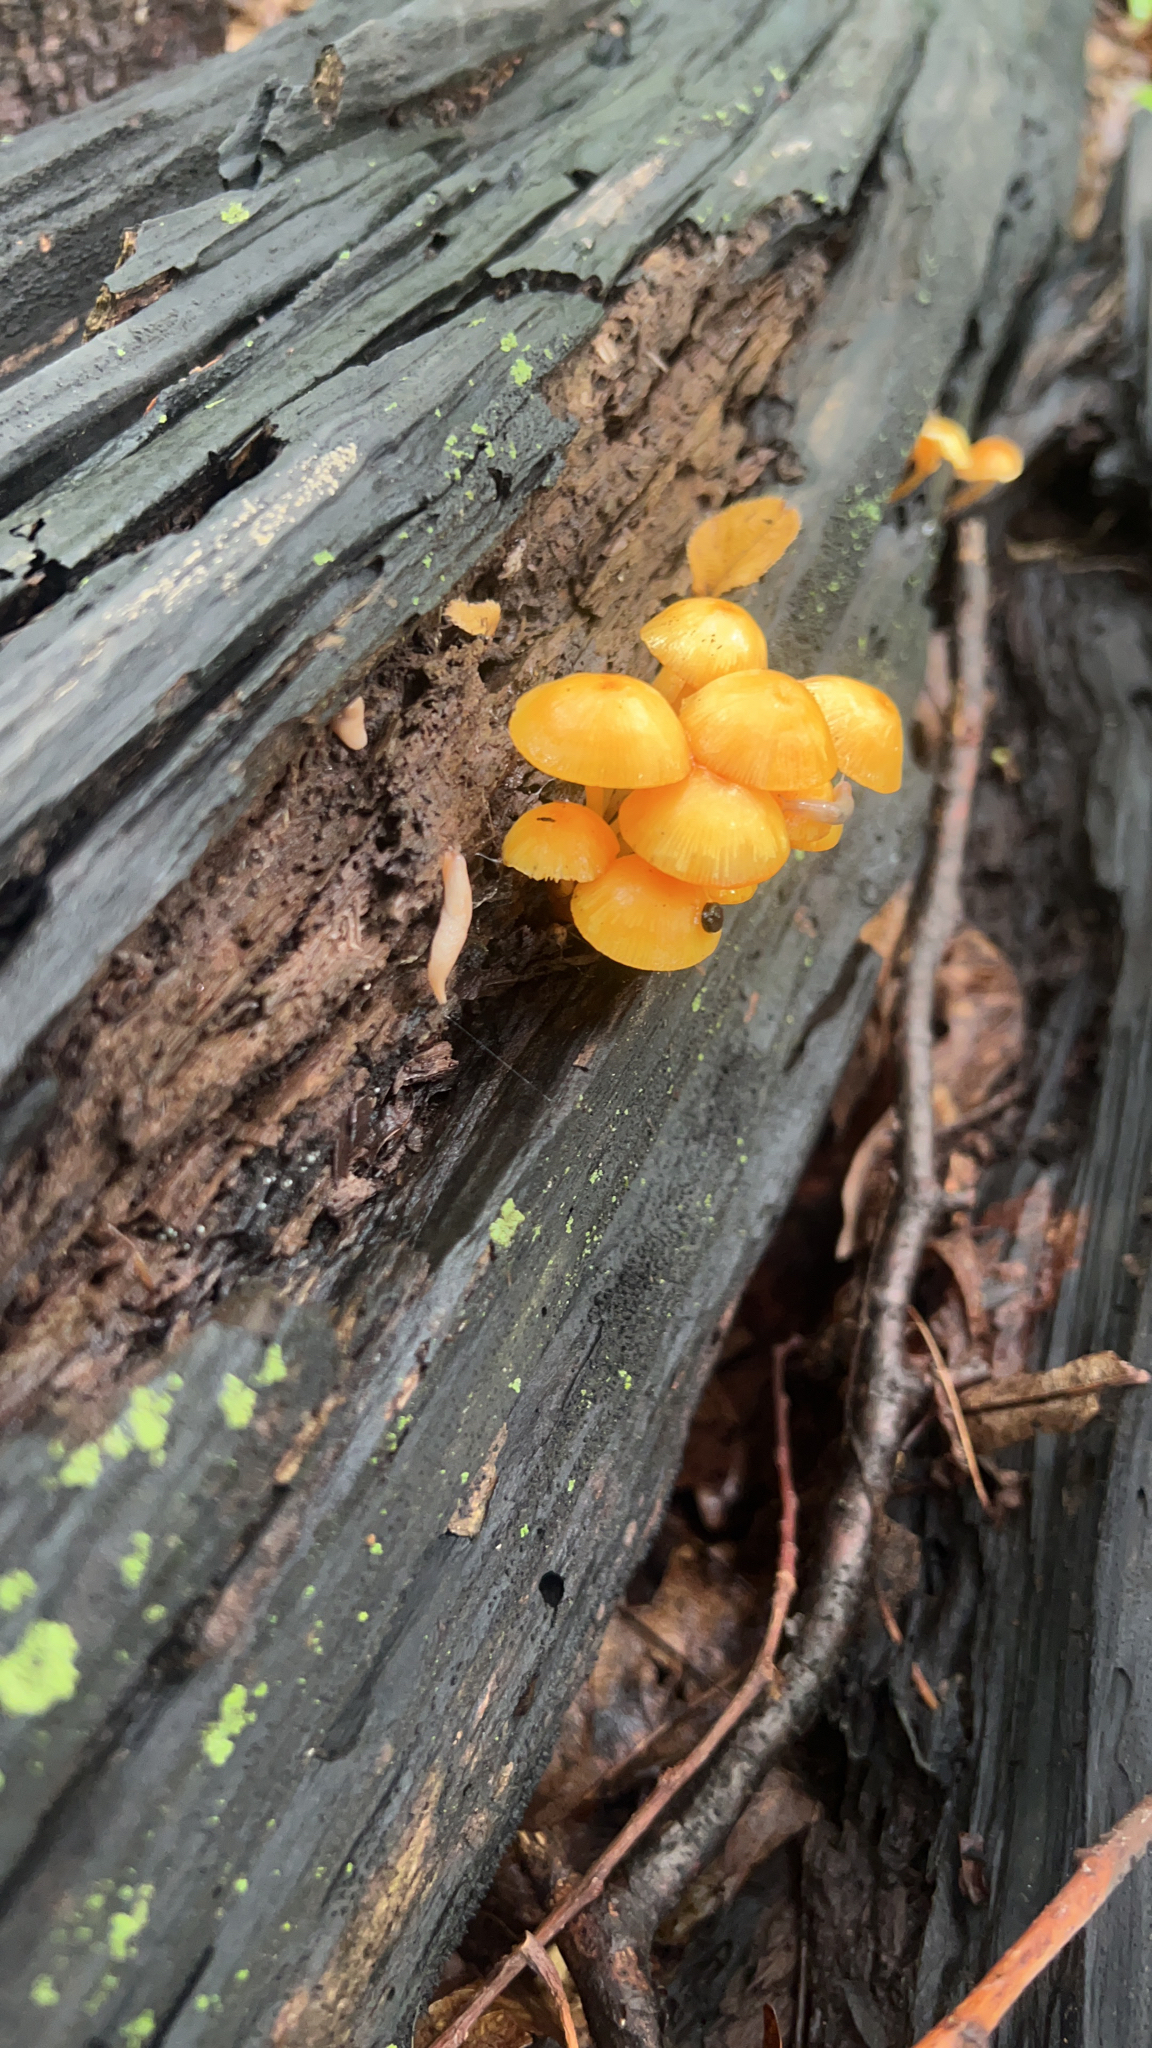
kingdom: Fungi
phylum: Basidiomycota
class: Agaricomycetes
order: Agaricales
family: Mycenaceae
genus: Mycena
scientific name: Mycena leaiana
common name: Orange mycena
